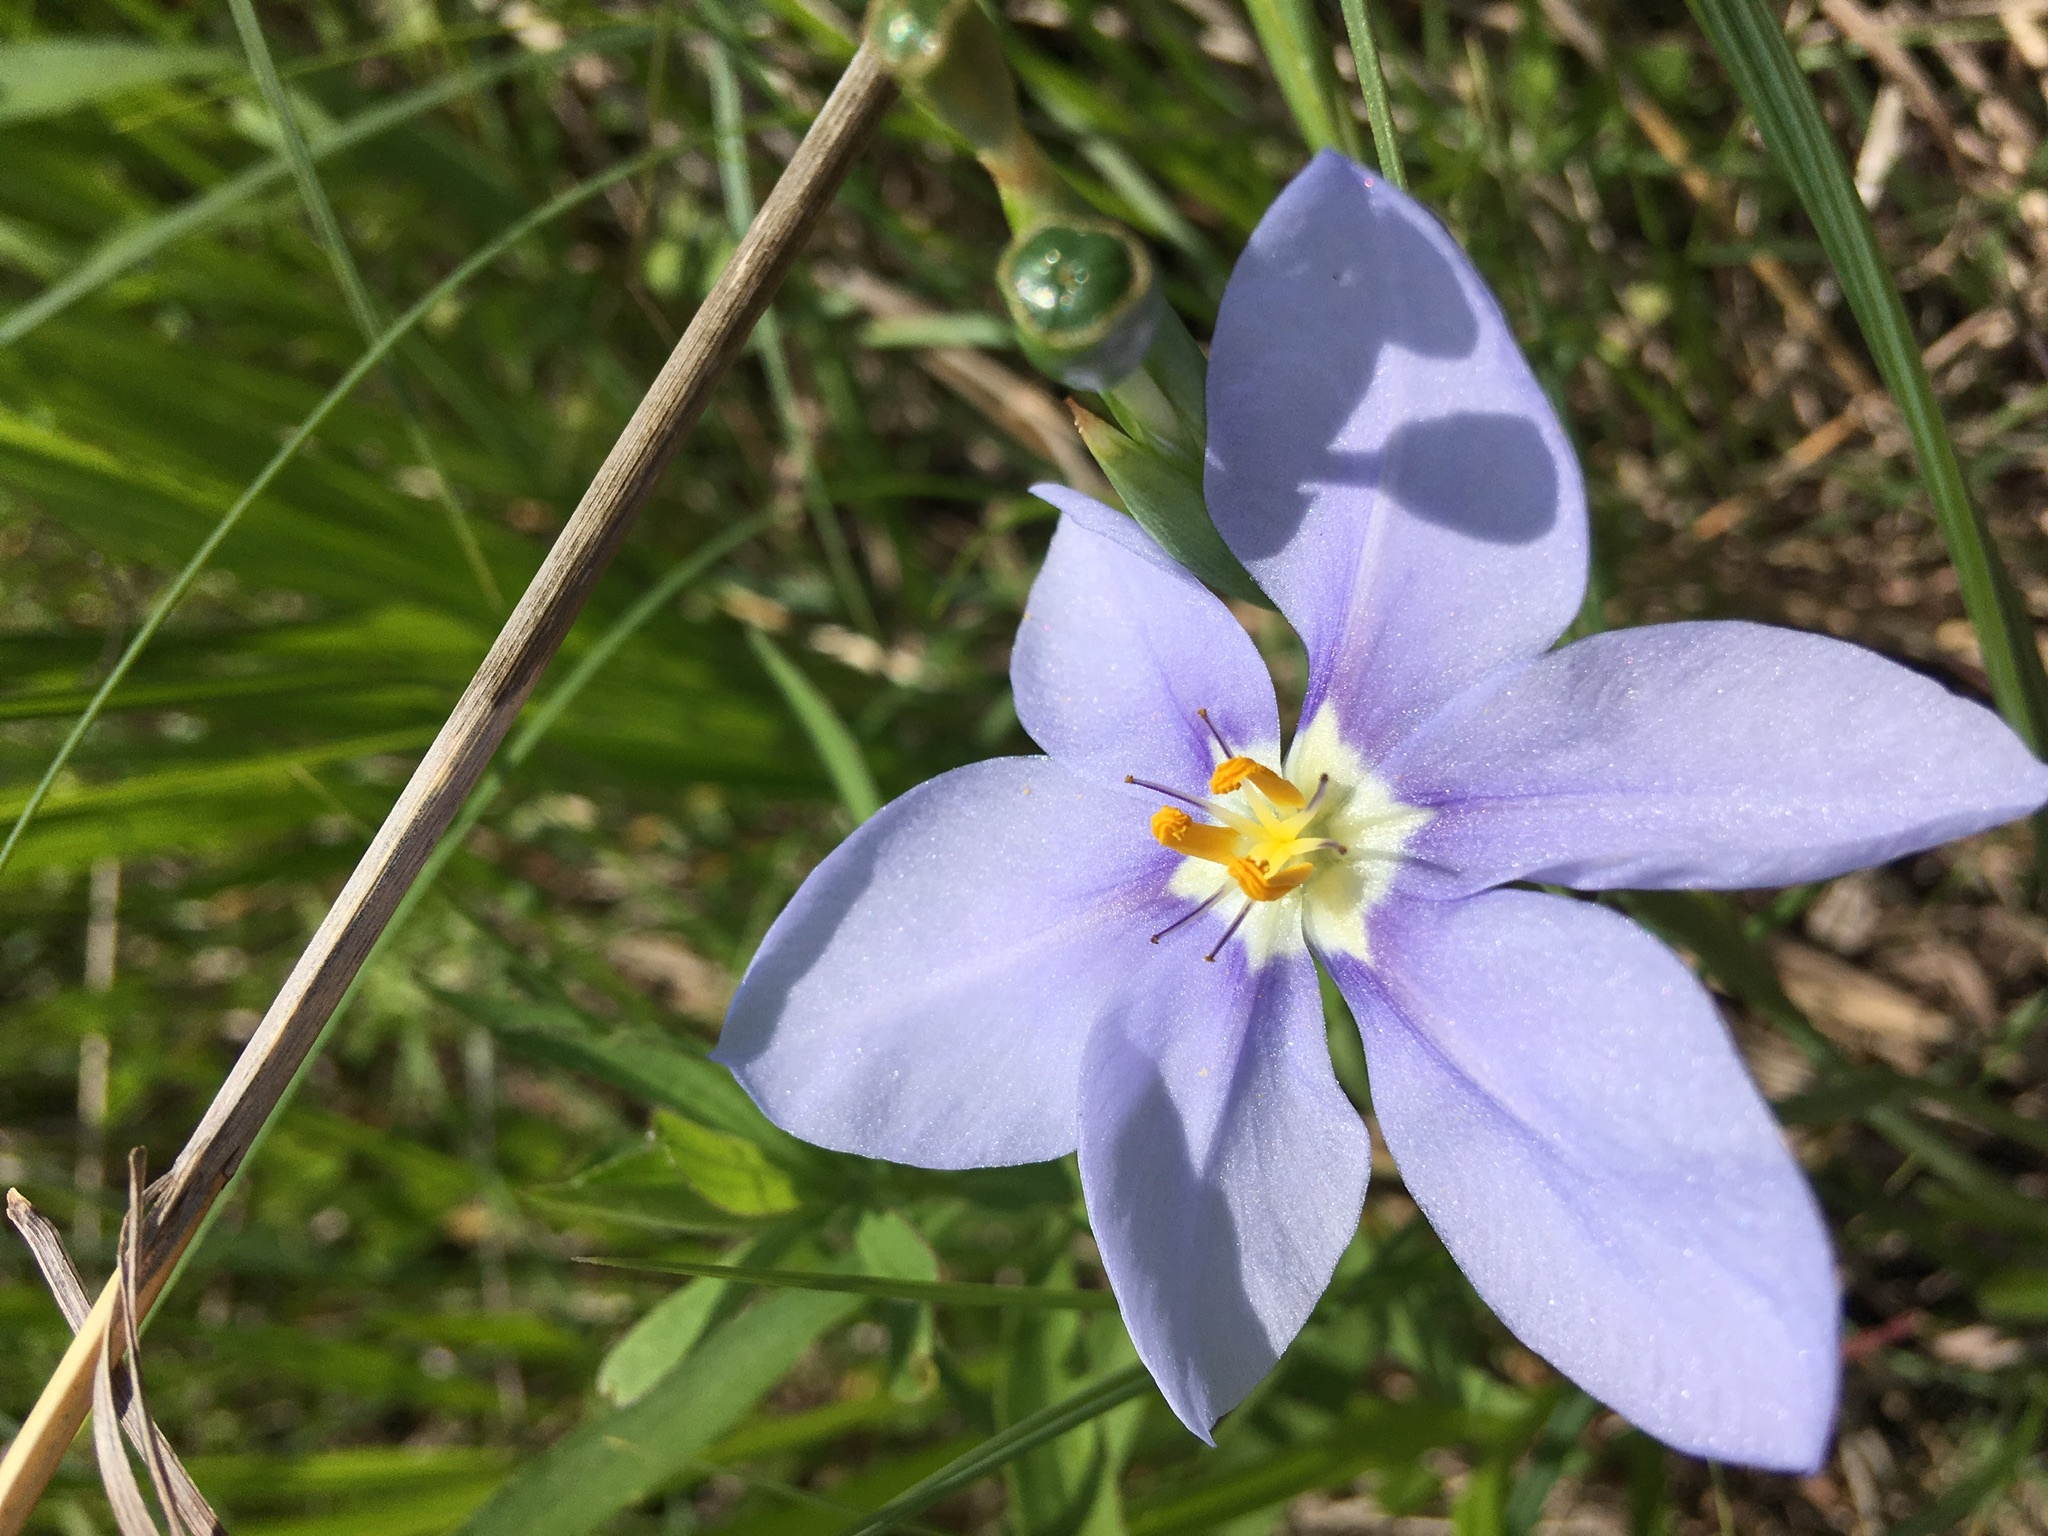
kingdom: Plantae
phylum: Tracheophyta
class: Liliopsida
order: Asparagales
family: Iridaceae
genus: Nemastylis
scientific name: Nemastylis geminiflora
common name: Prairie celestial
